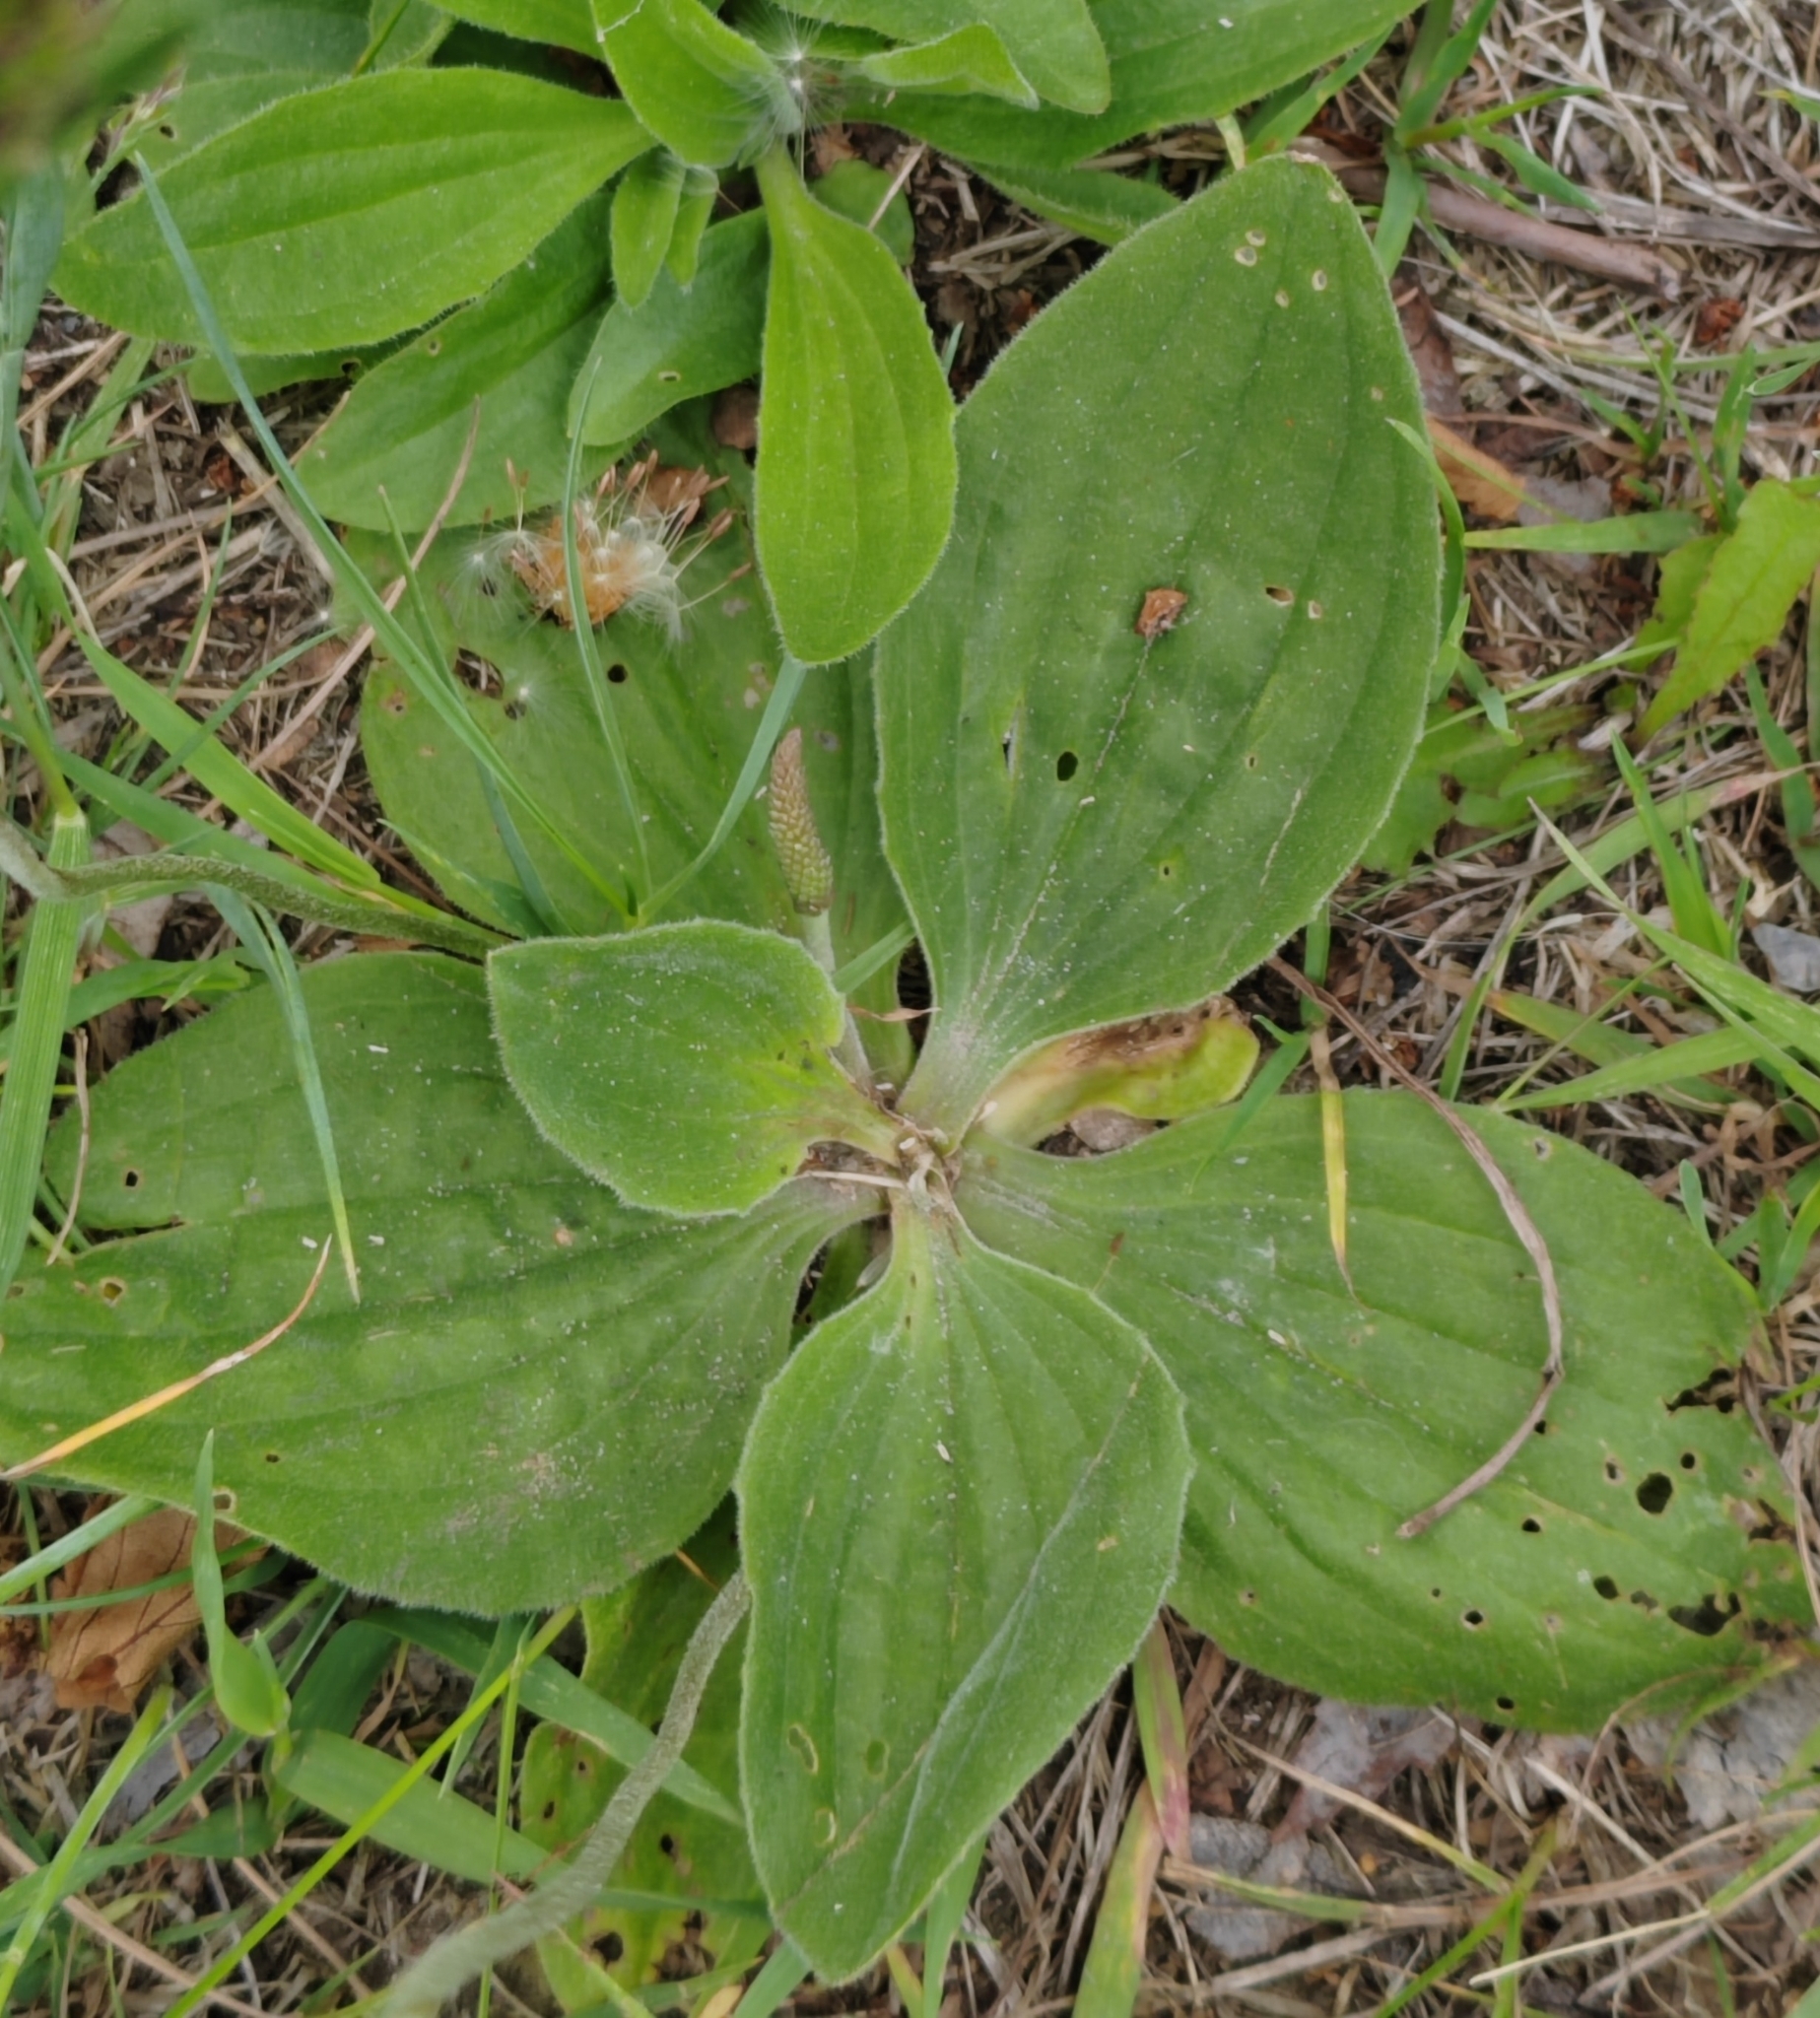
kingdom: Plantae
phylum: Tracheophyta
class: Magnoliopsida
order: Lamiales
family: Plantaginaceae
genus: Plantago
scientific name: Plantago media
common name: Hoary plantain
